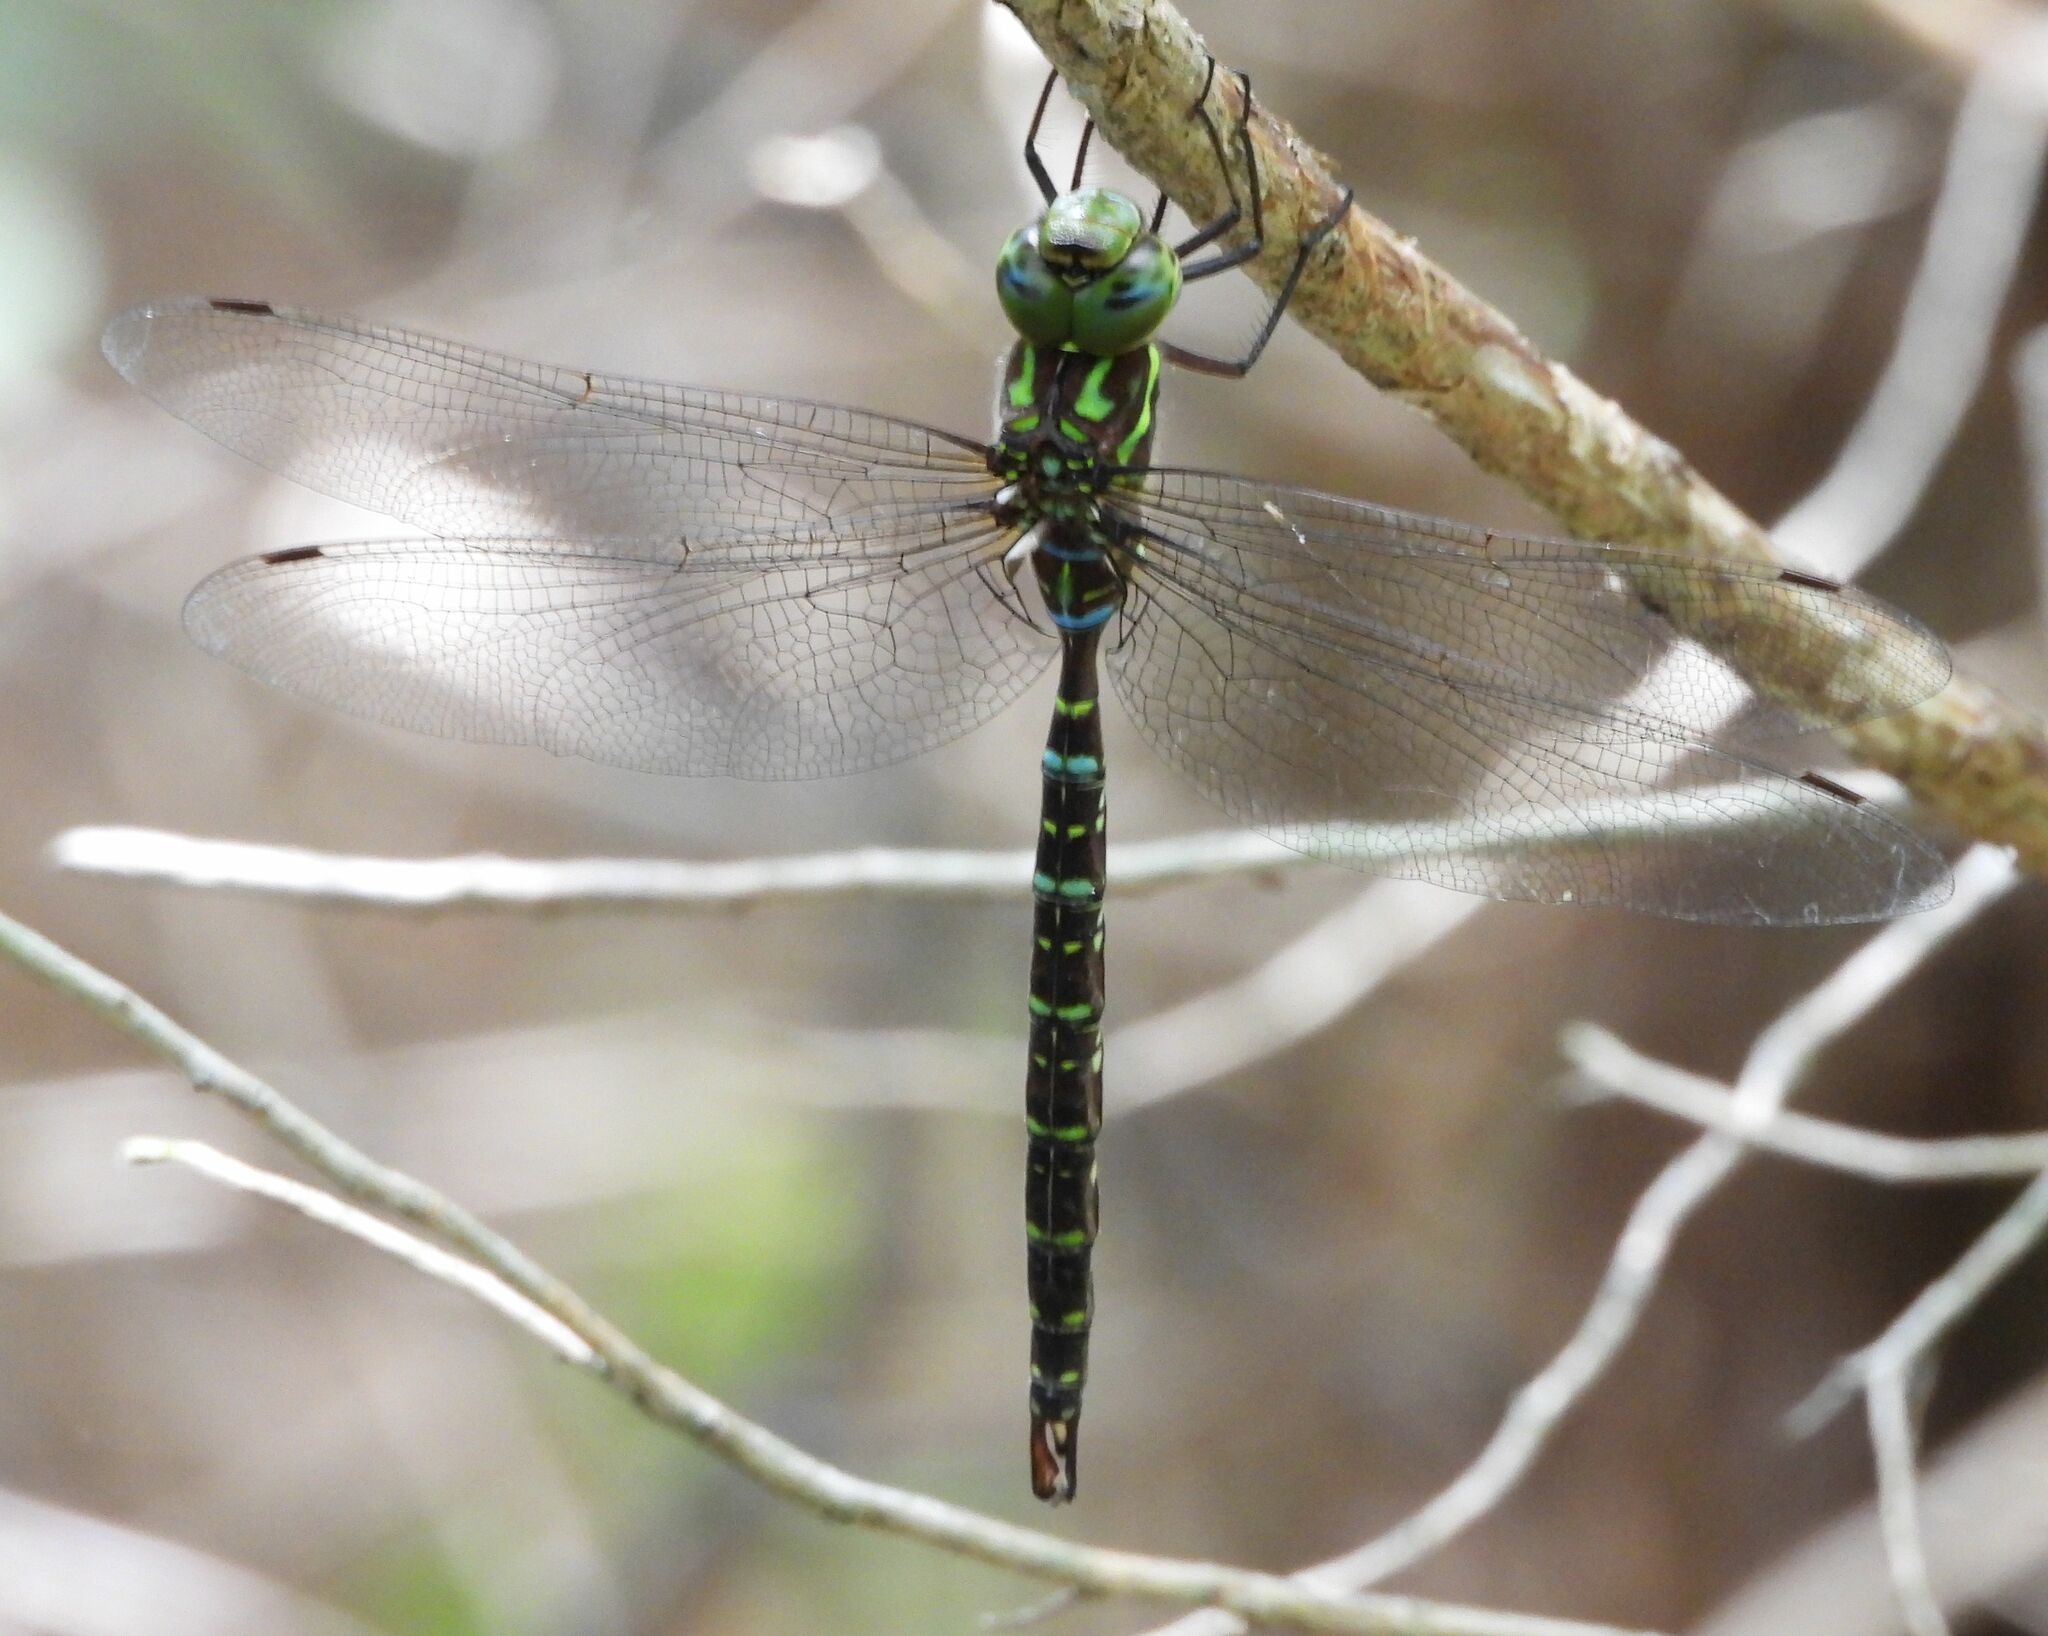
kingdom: Animalia
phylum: Arthropoda
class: Insecta
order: Odonata
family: Aeshnidae
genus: Aeshna
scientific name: Aeshna umbrosa
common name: Shadow darner
